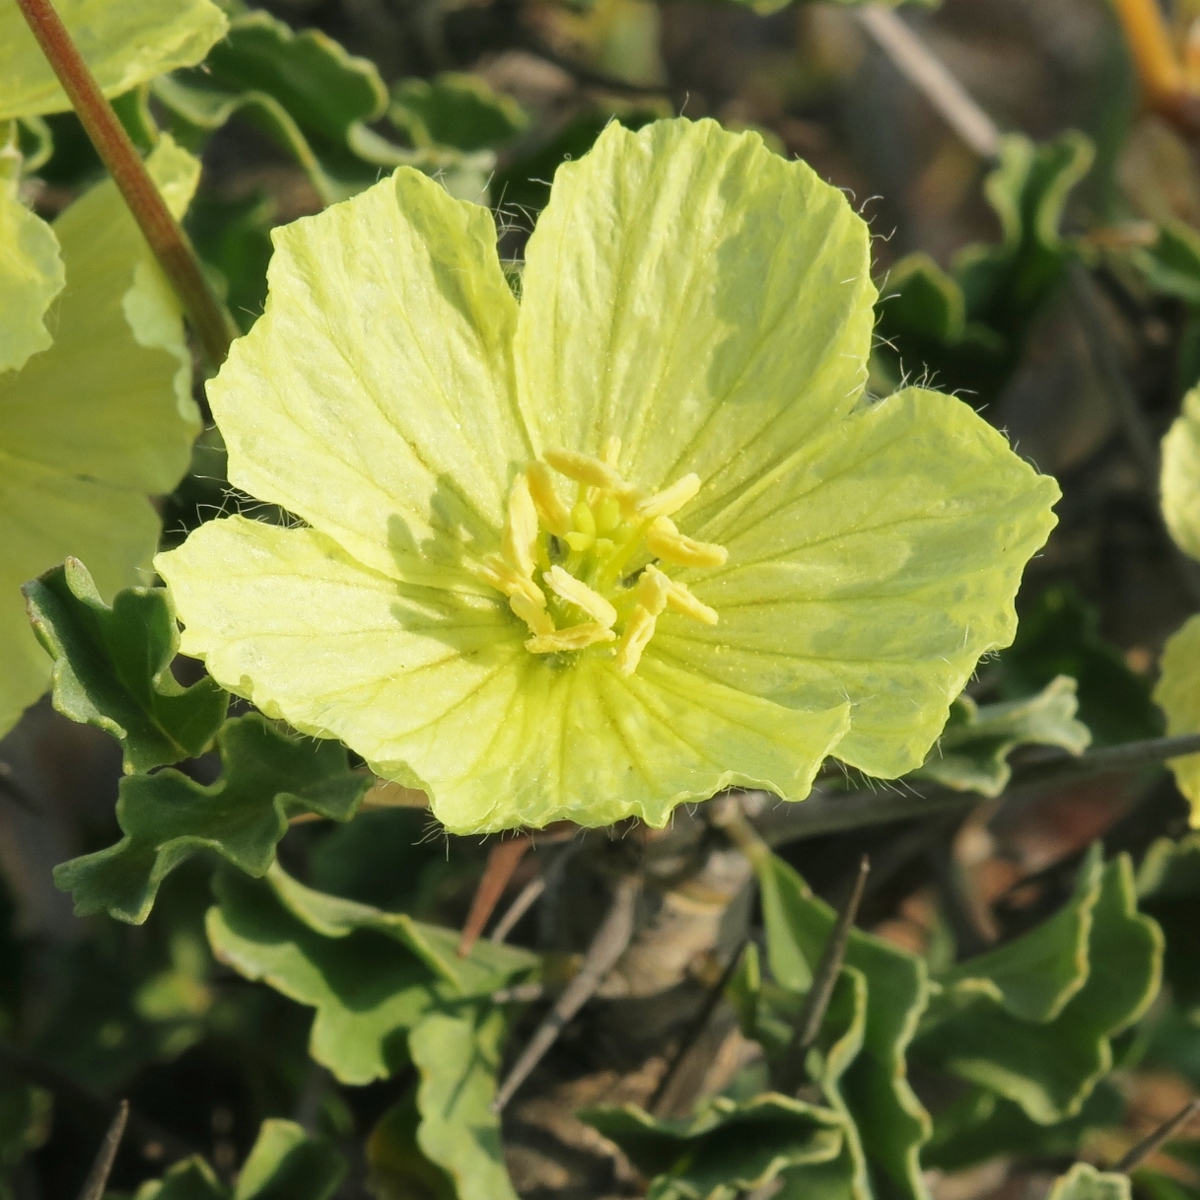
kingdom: Plantae
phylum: Tracheophyta
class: Magnoliopsida
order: Geraniales
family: Geraniaceae
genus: Monsonia
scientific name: Monsonia ciliata
